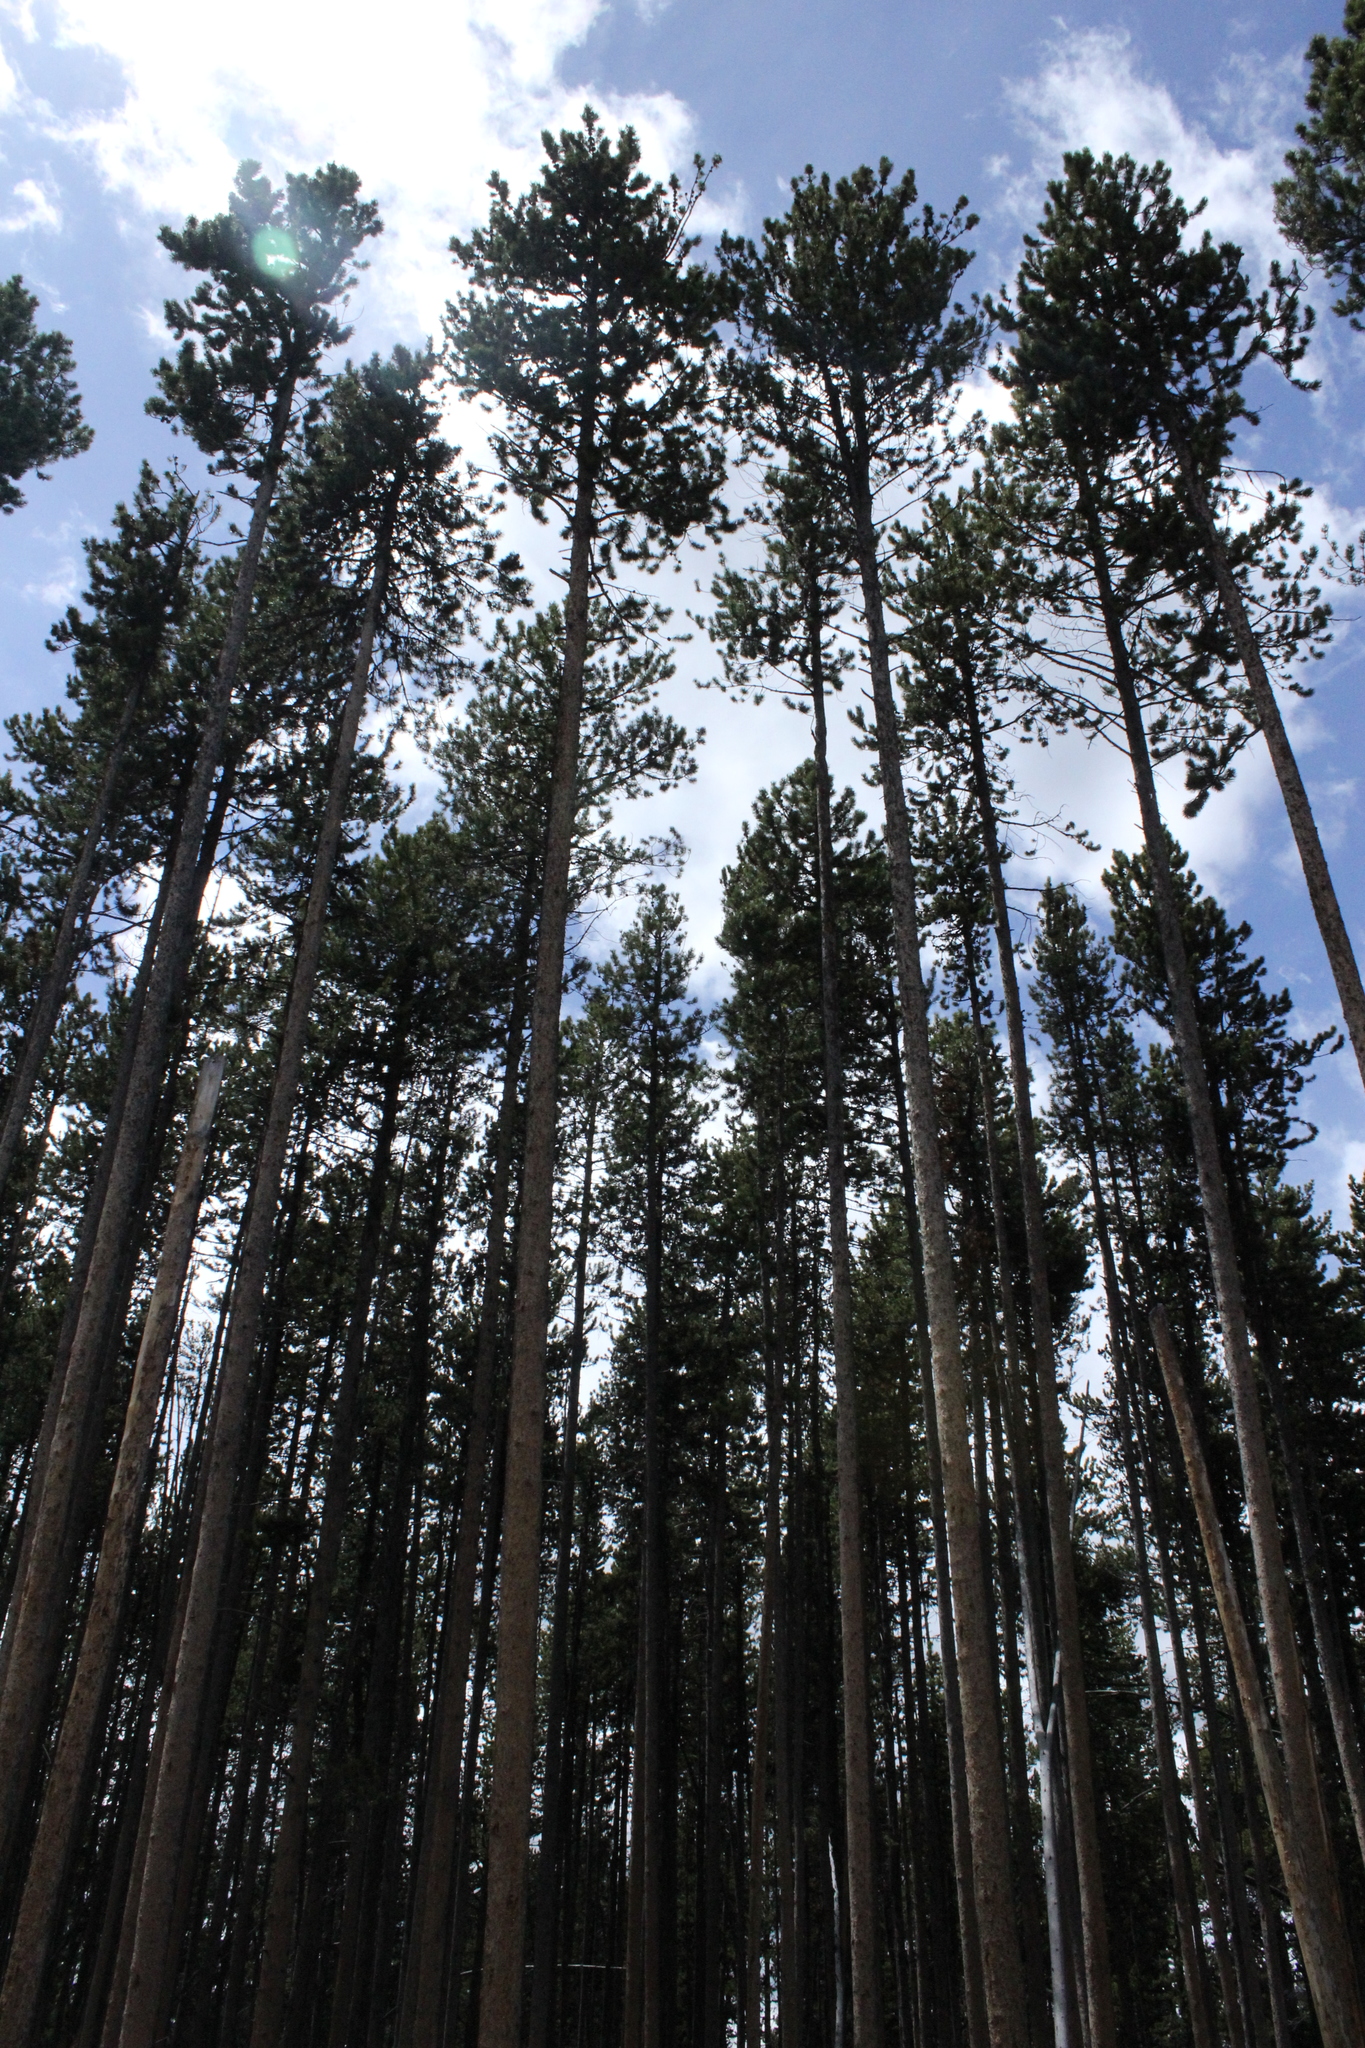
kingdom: Plantae
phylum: Tracheophyta
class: Pinopsida
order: Pinales
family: Pinaceae
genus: Pinus
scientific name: Pinus contorta
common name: Lodgepole pine
